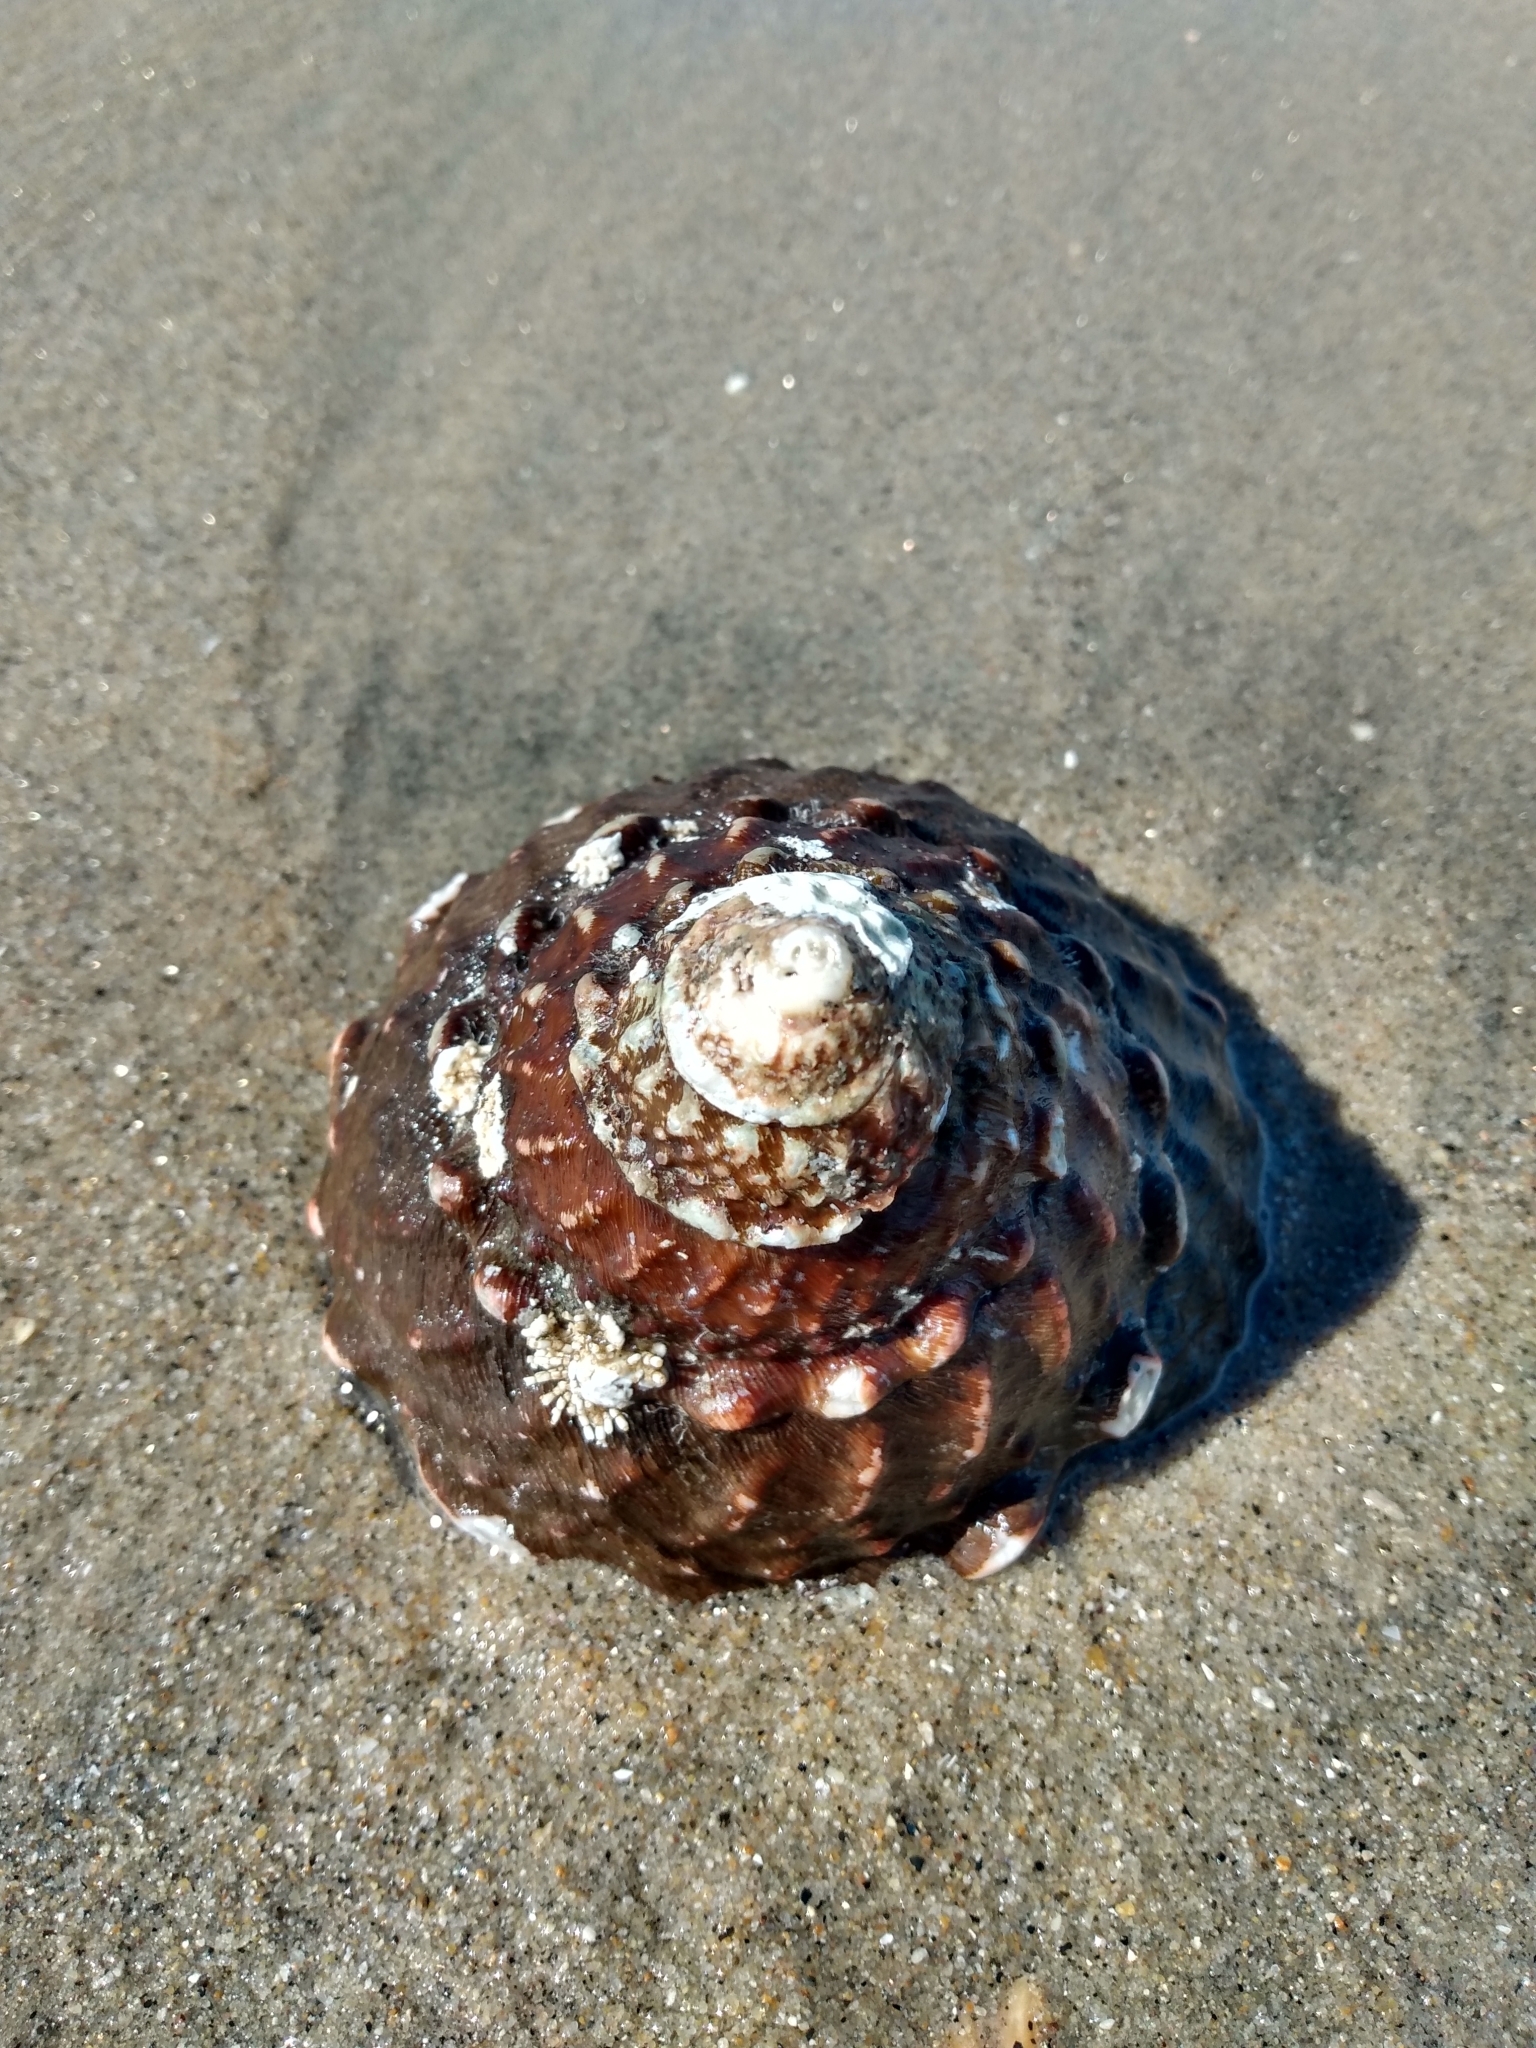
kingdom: Animalia
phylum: Mollusca
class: Gastropoda
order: Trochida
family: Turbinidae
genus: Megastraea
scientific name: Megastraea undosa
